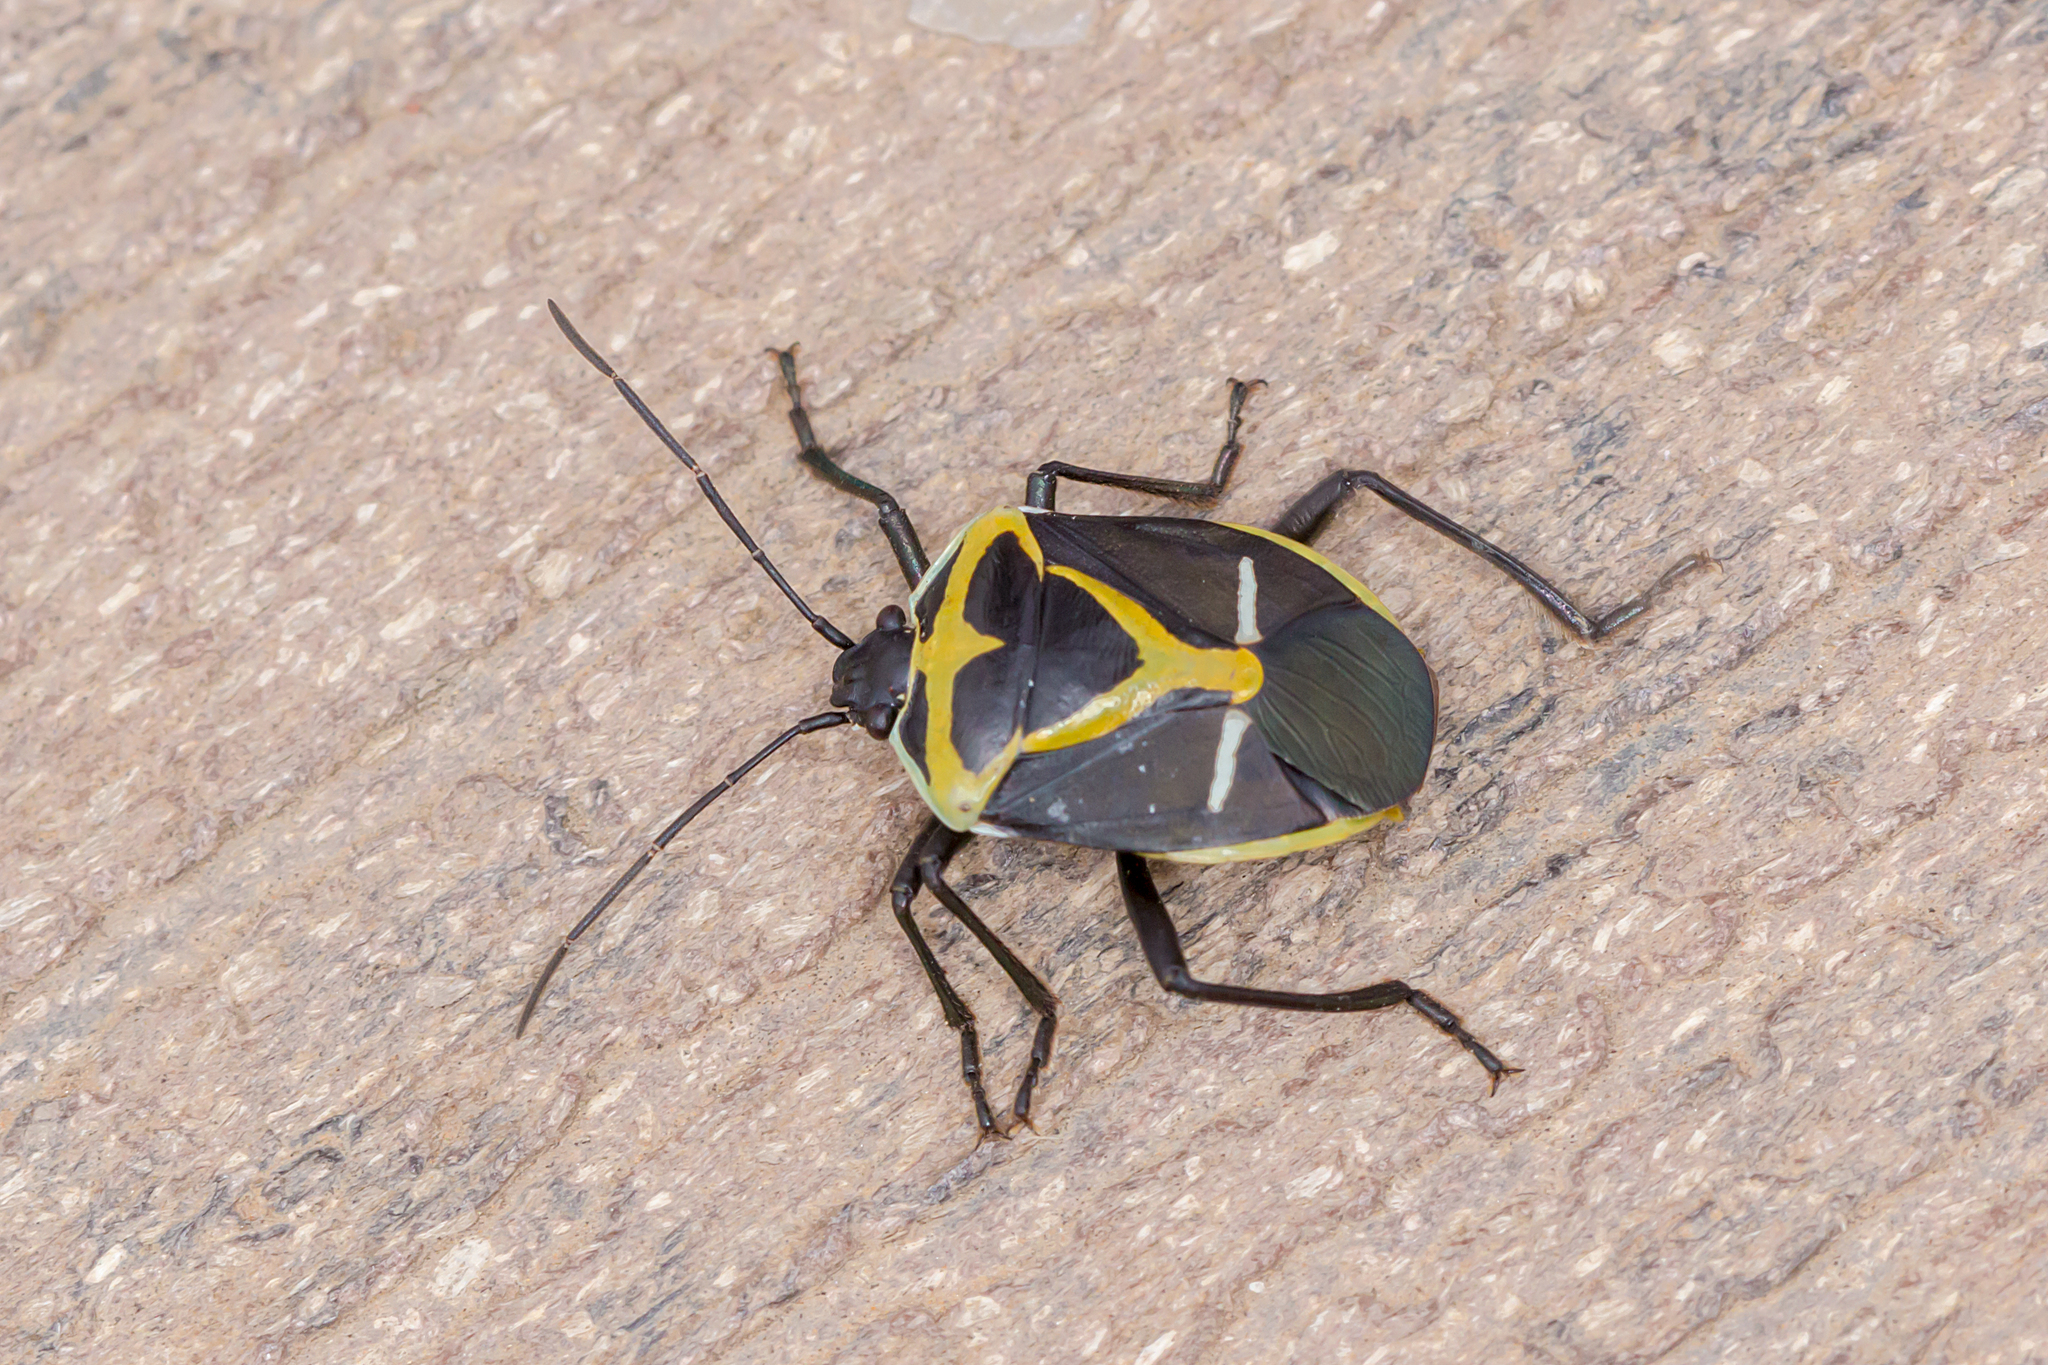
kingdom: Animalia
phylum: Arthropoda
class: Insecta
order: Hemiptera
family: Pentatomidae
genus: Commius
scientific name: Commius
